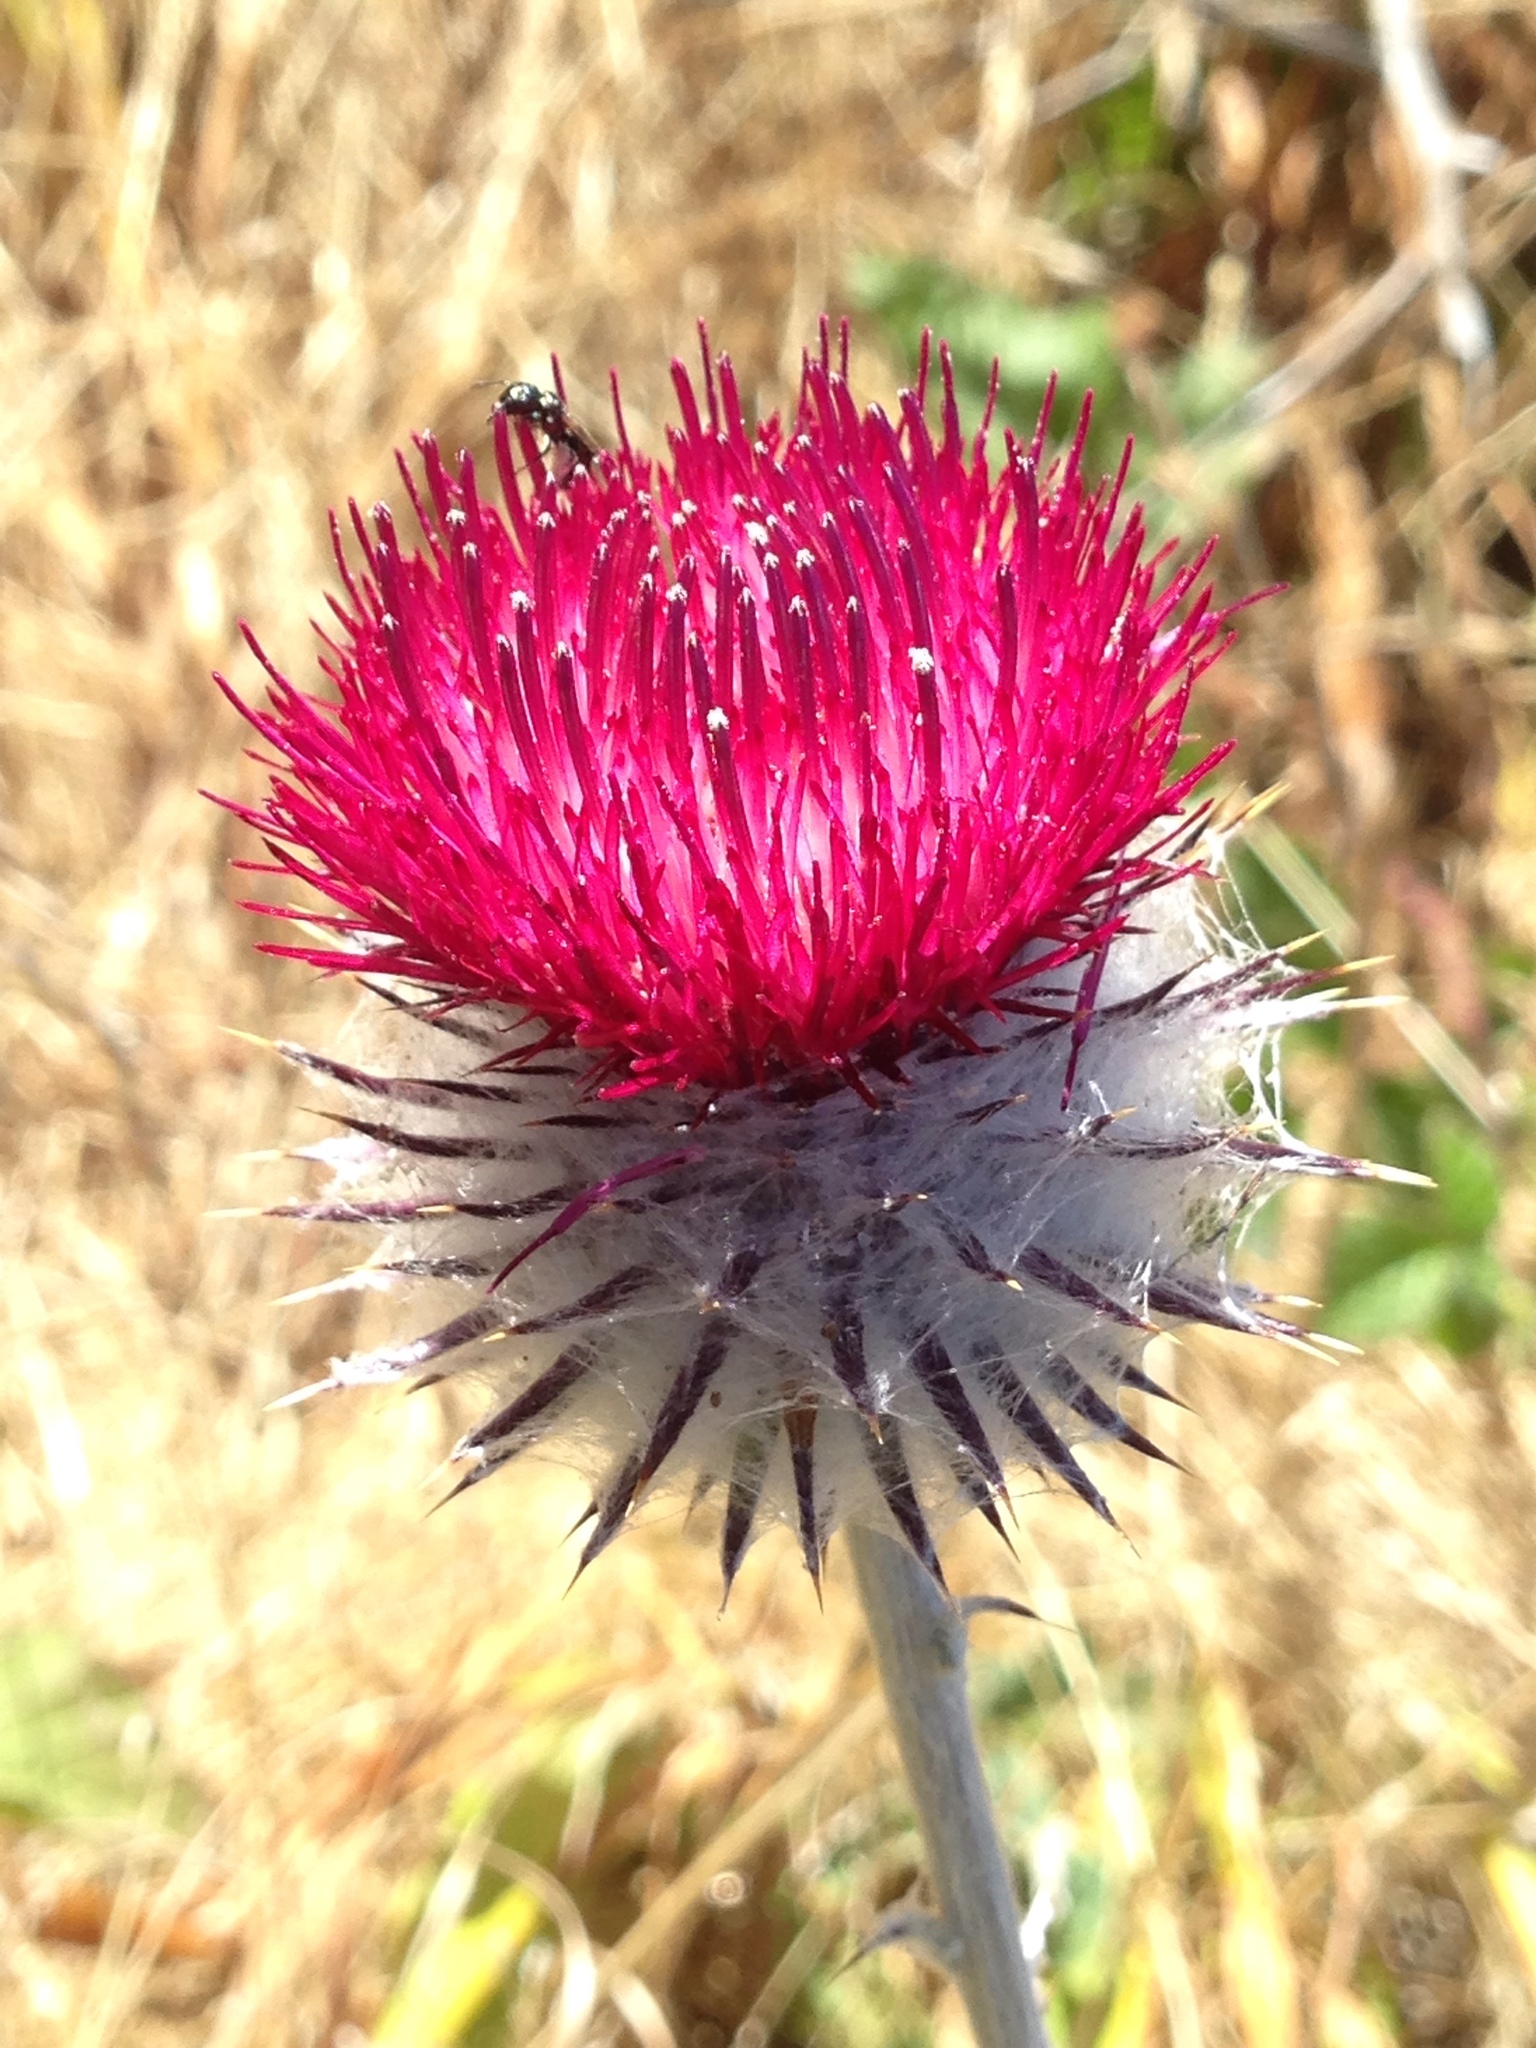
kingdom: Plantae
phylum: Tracheophyta
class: Magnoliopsida
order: Asterales
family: Asteraceae
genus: Cirsium
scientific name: Cirsium occidentale
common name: Western thistle
